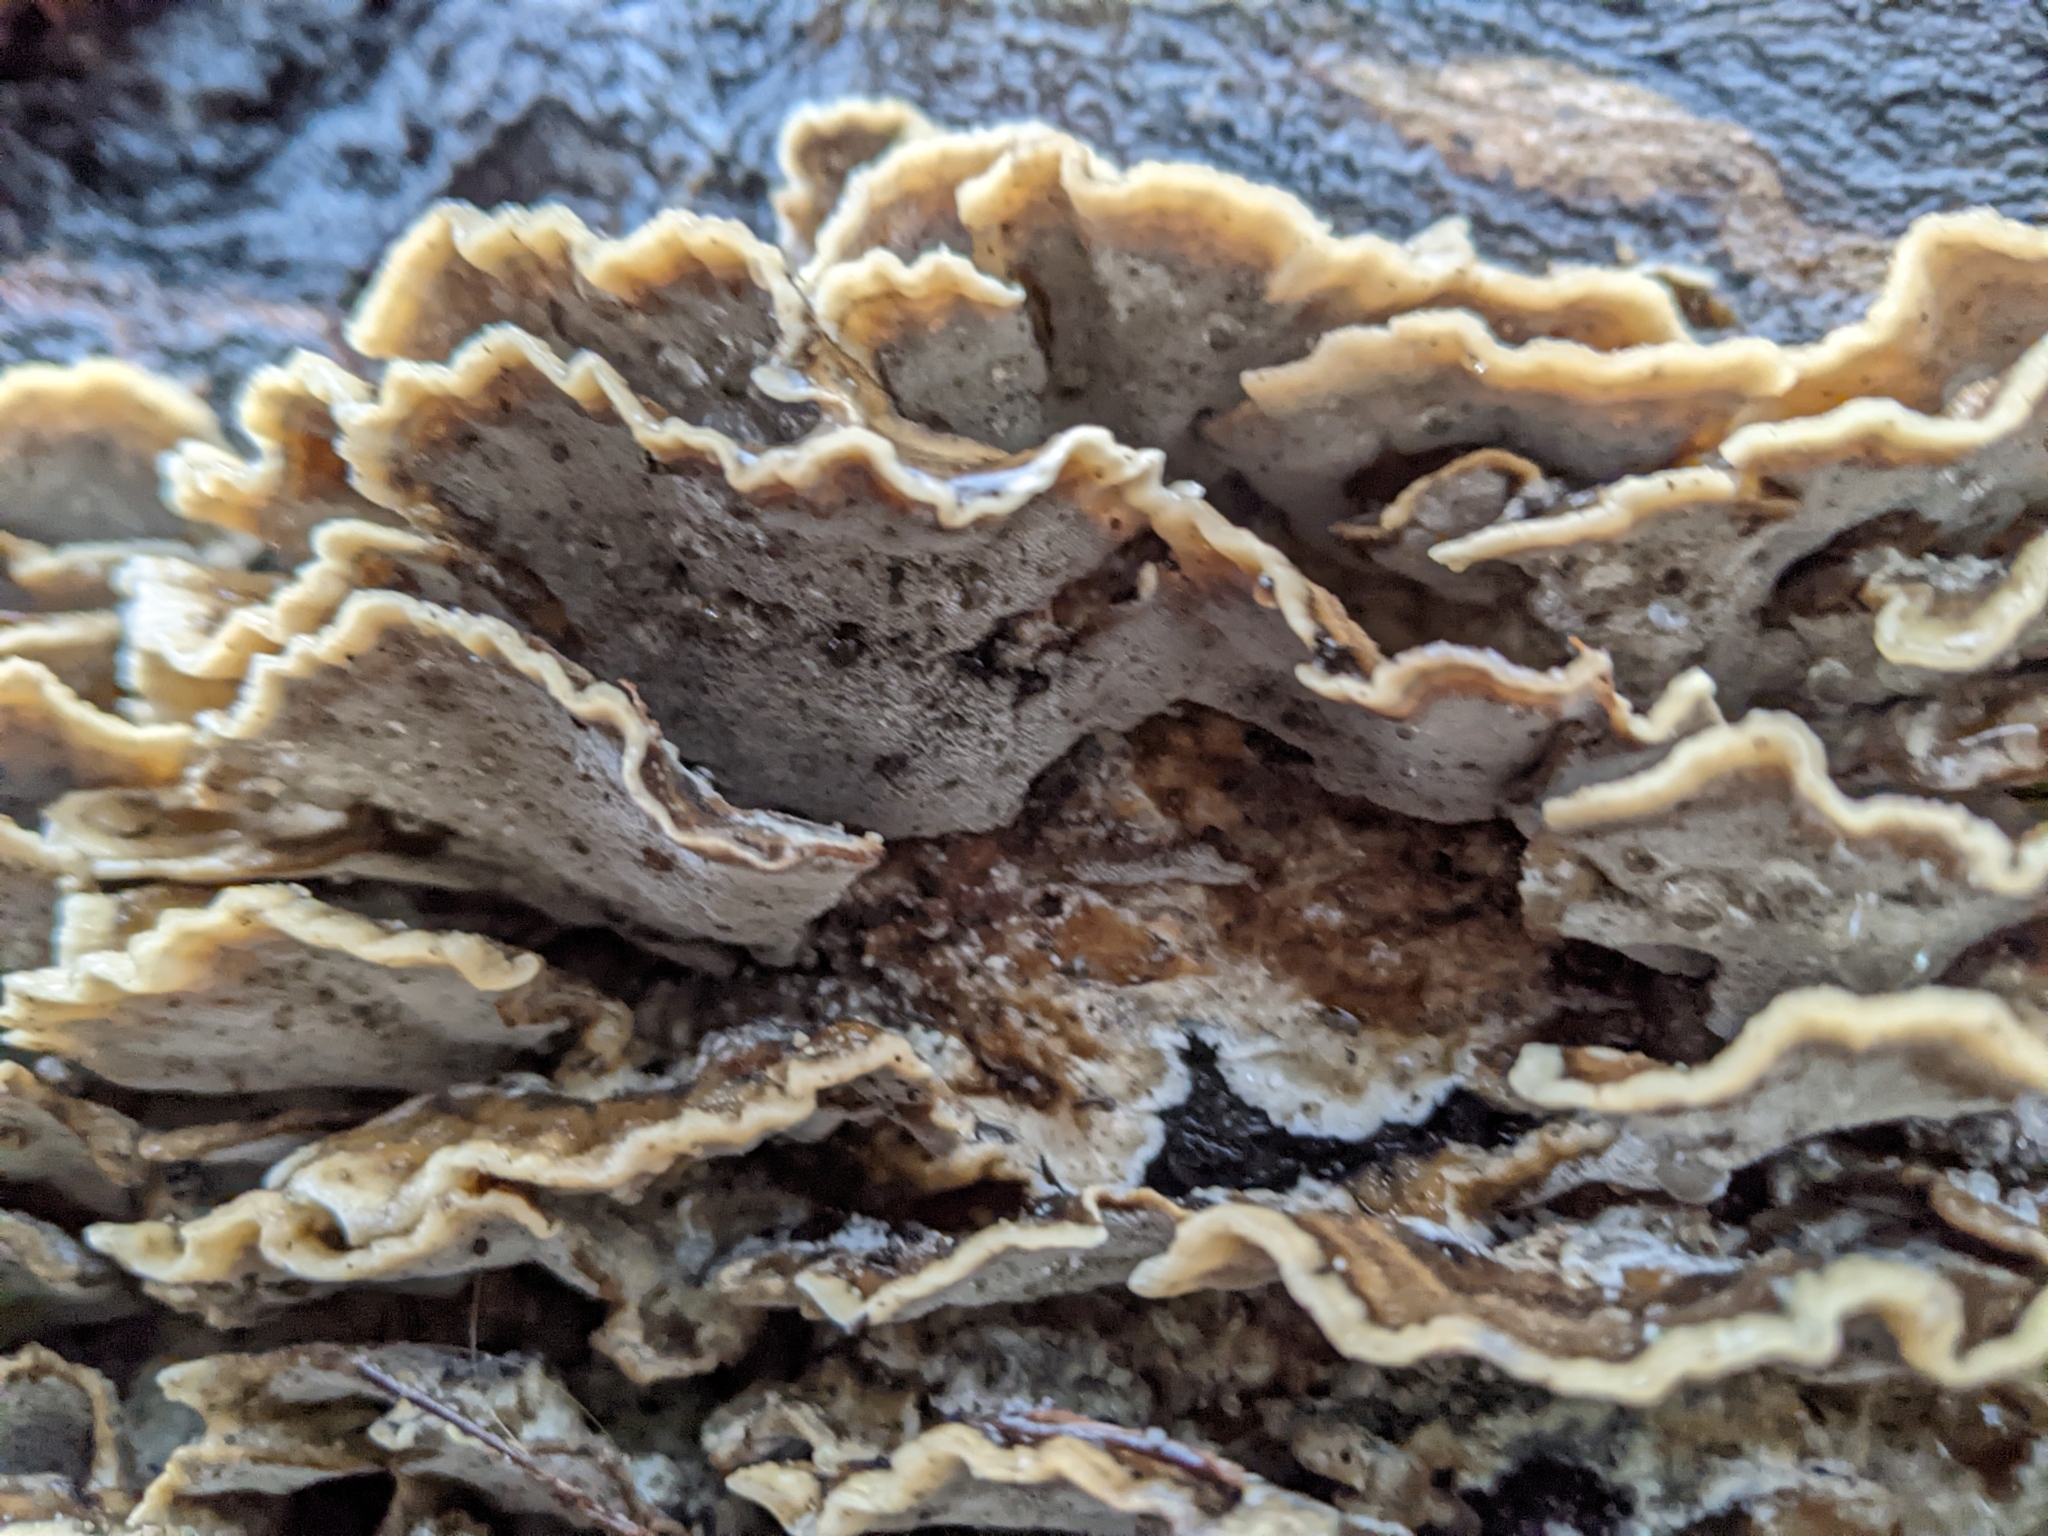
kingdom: Fungi
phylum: Basidiomycota
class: Agaricomycetes
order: Polyporales
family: Phanerochaetaceae
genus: Bjerkandera
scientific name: Bjerkandera adusta
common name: Smoky bracket
